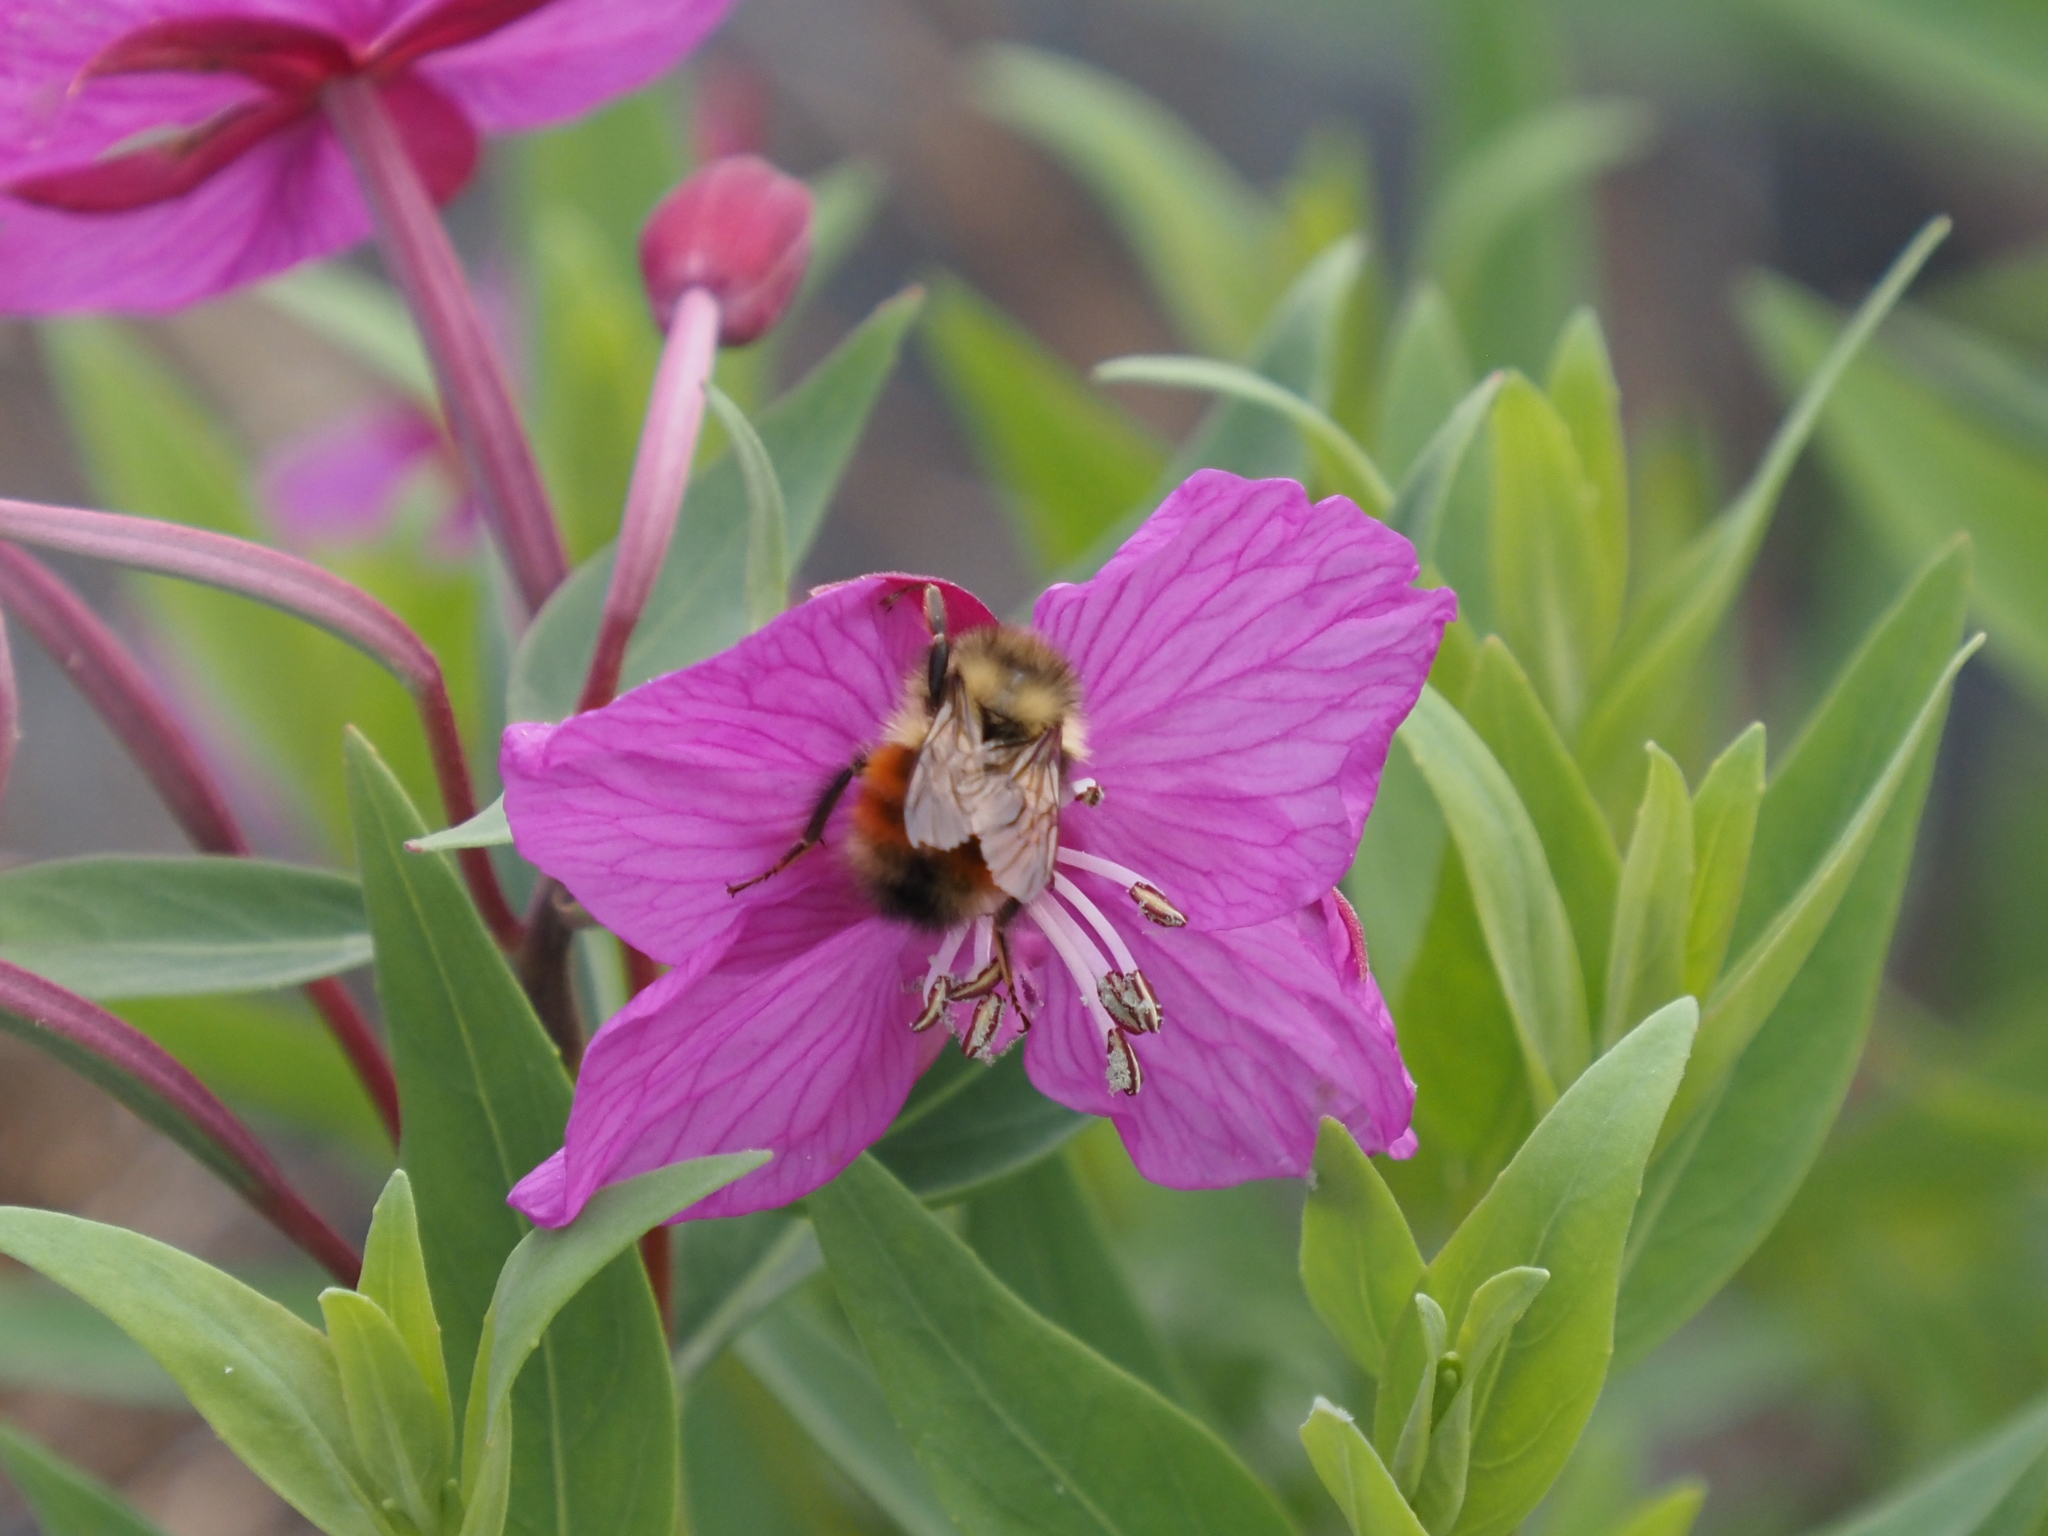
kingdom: Animalia
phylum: Arthropoda
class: Insecta
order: Hymenoptera
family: Apidae
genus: Bombus
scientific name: Bombus melanopygus
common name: Black tail bumble bee
